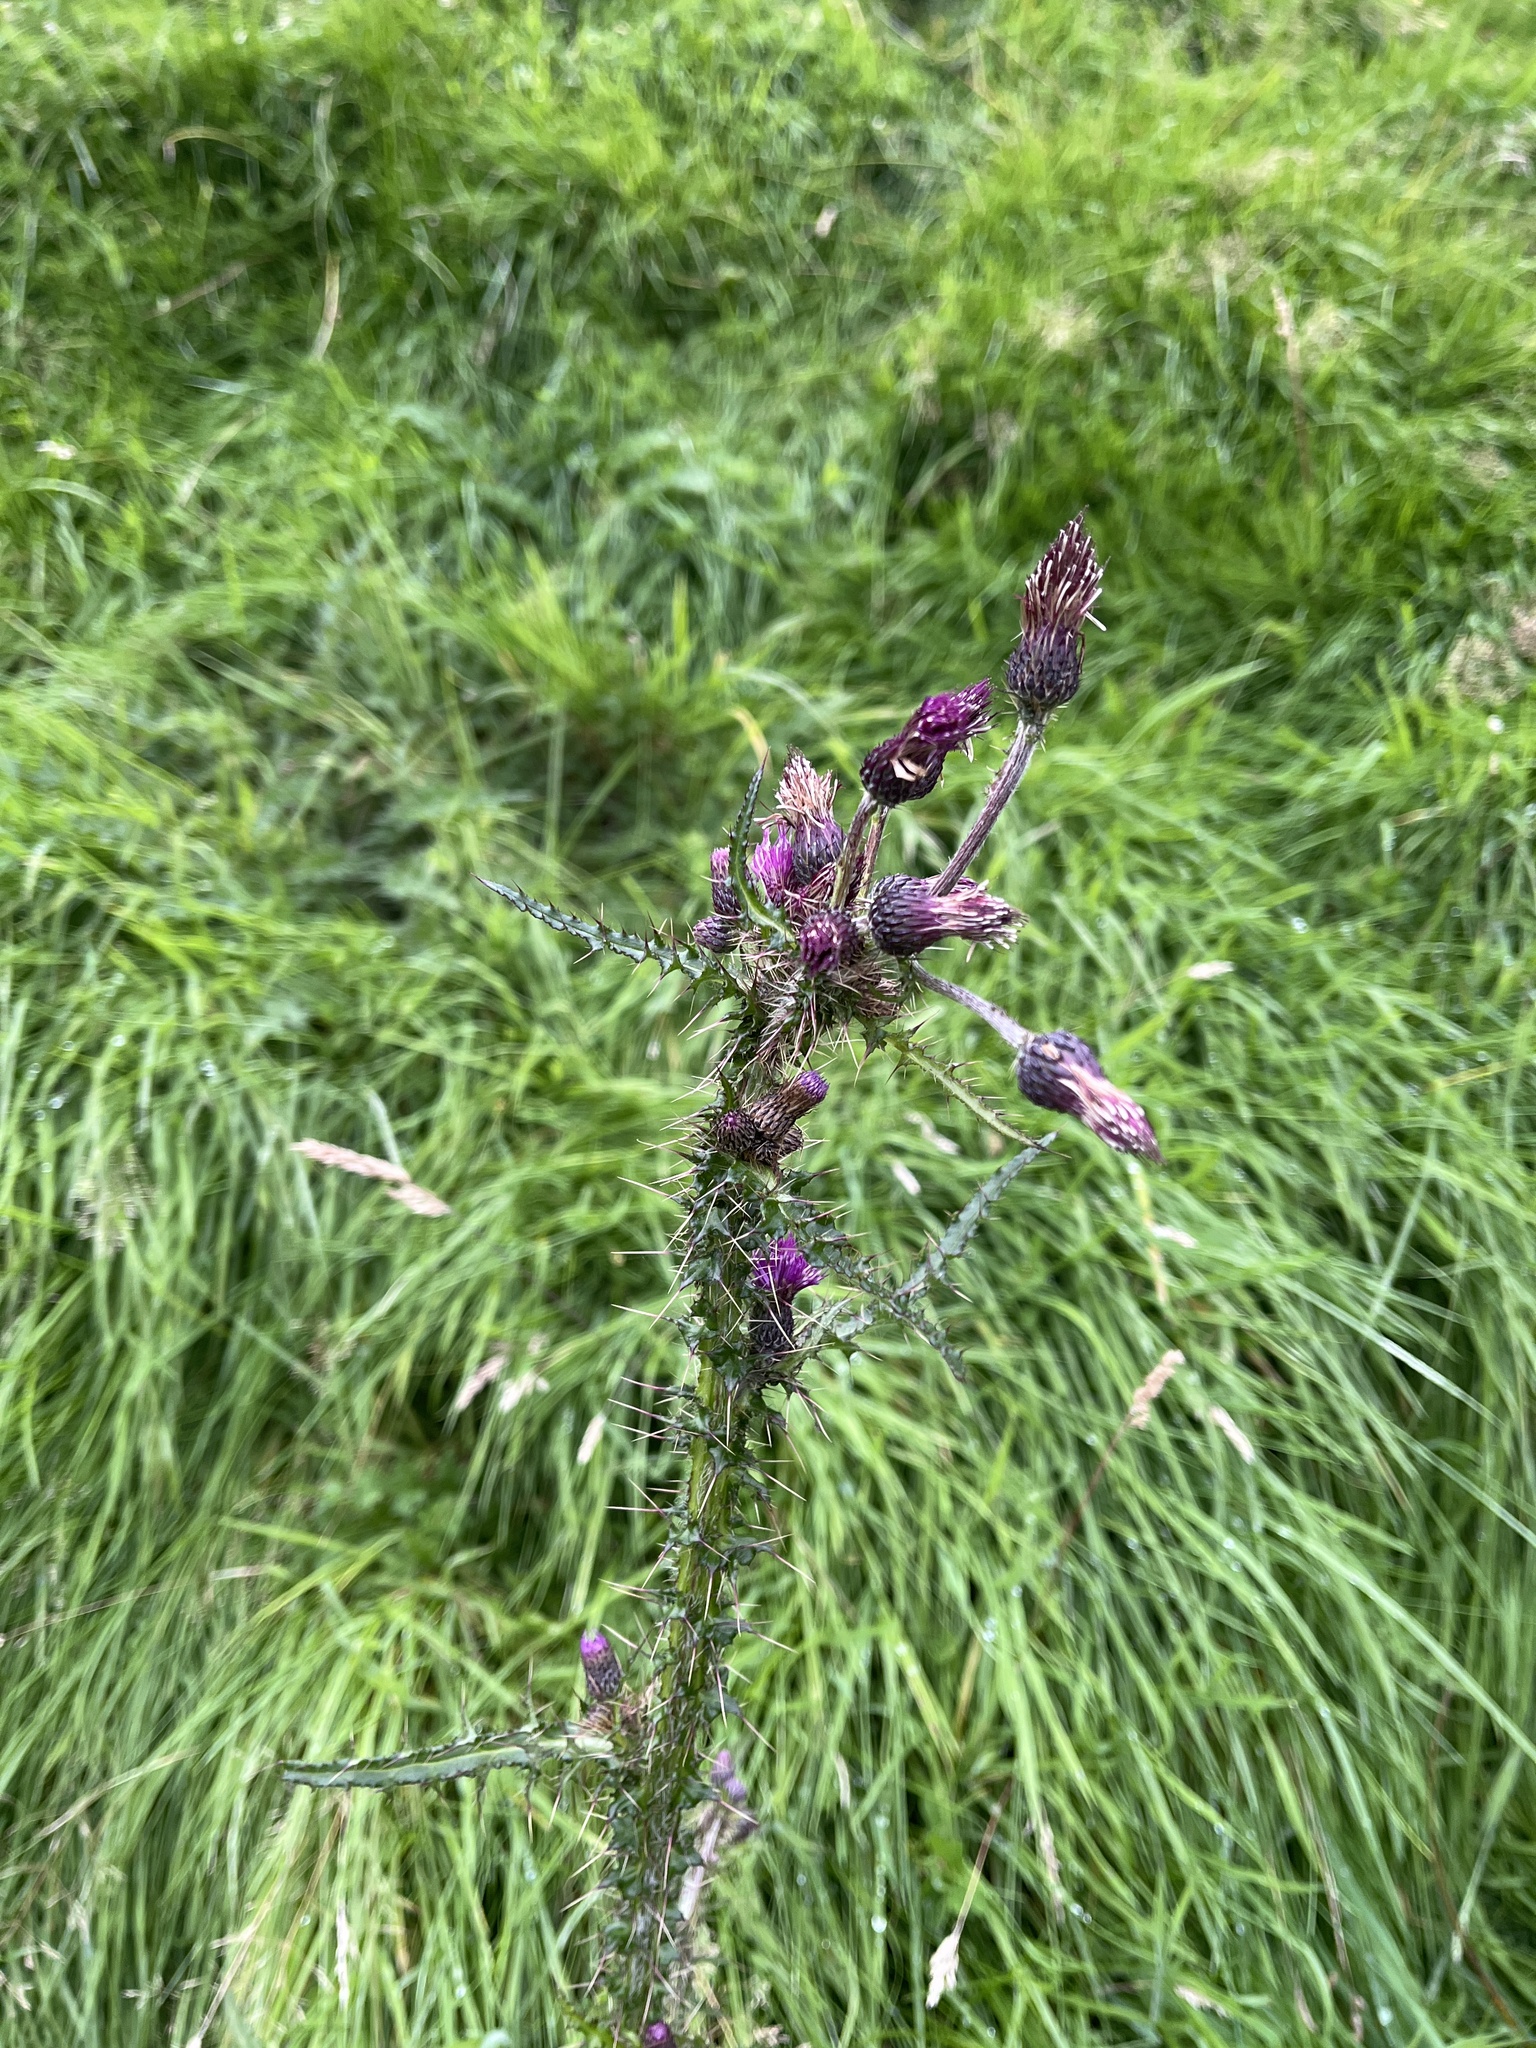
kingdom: Plantae
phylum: Tracheophyta
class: Magnoliopsida
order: Asterales
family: Asteraceae
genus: Cirsium
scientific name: Cirsium palustre
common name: Marsh thistle
